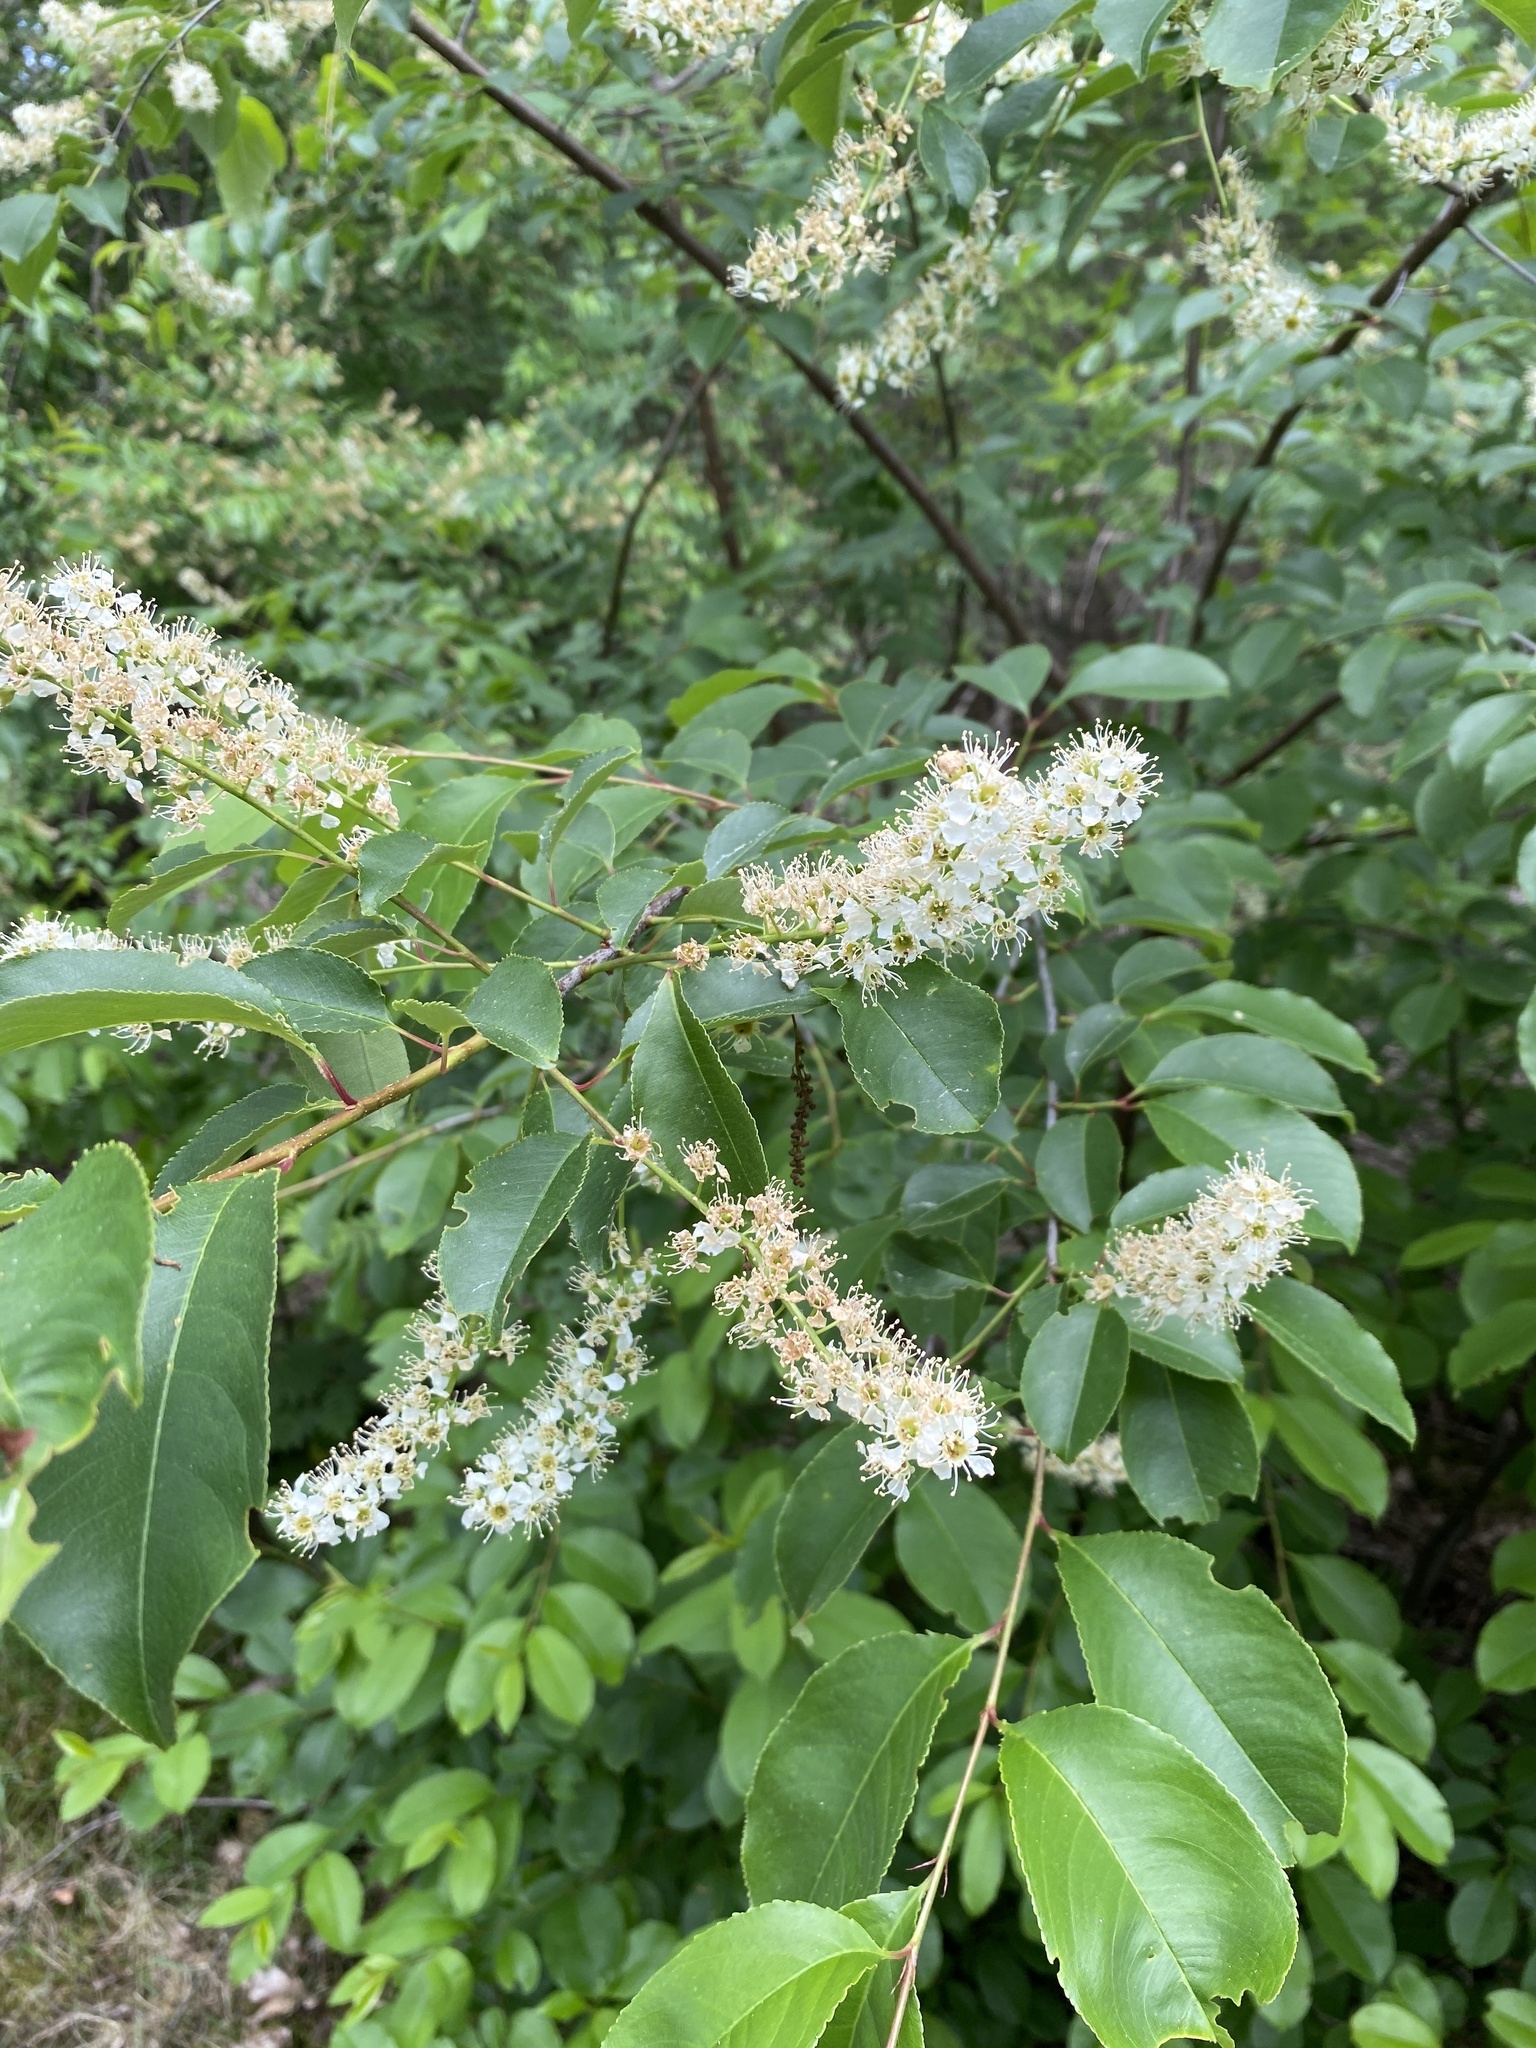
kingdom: Plantae
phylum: Tracheophyta
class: Magnoliopsida
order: Rosales
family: Rosaceae
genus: Prunus
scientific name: Prunus serotina
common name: Black cherry
